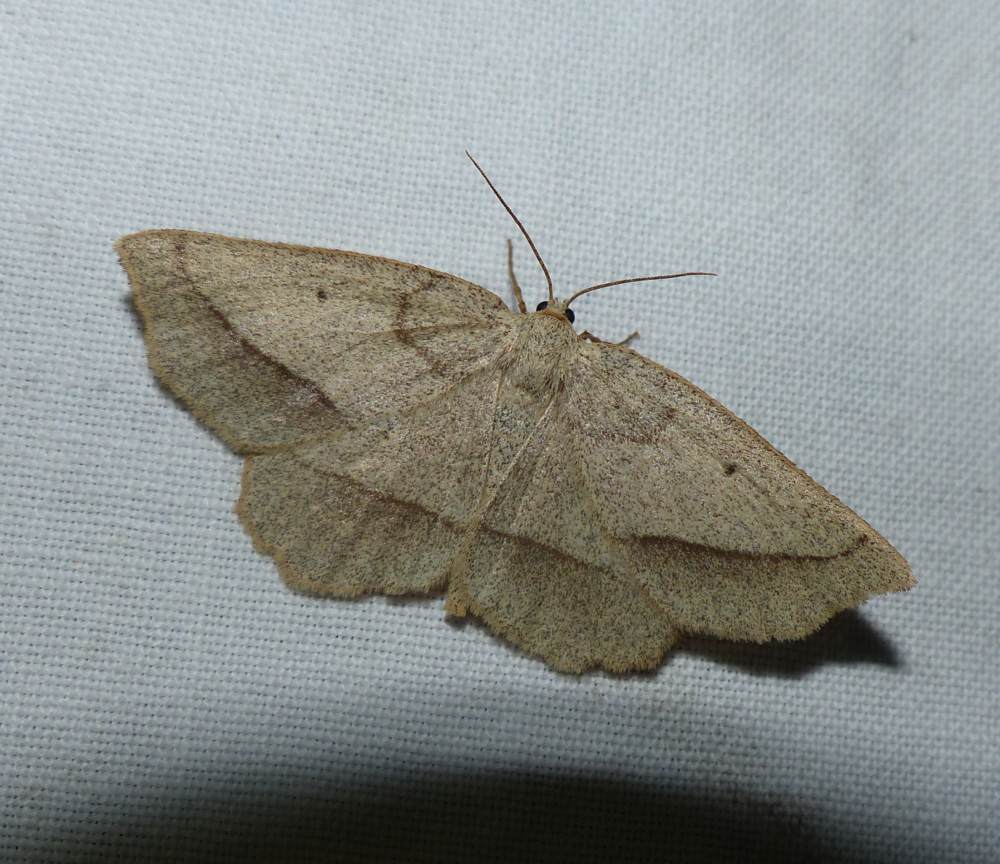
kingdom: Animalia
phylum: Arthropoda
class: Insecta
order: Lepidoptera
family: Geometridae
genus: Euchlaena
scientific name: Euchlaena irraria
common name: Least-marked euchlaena
